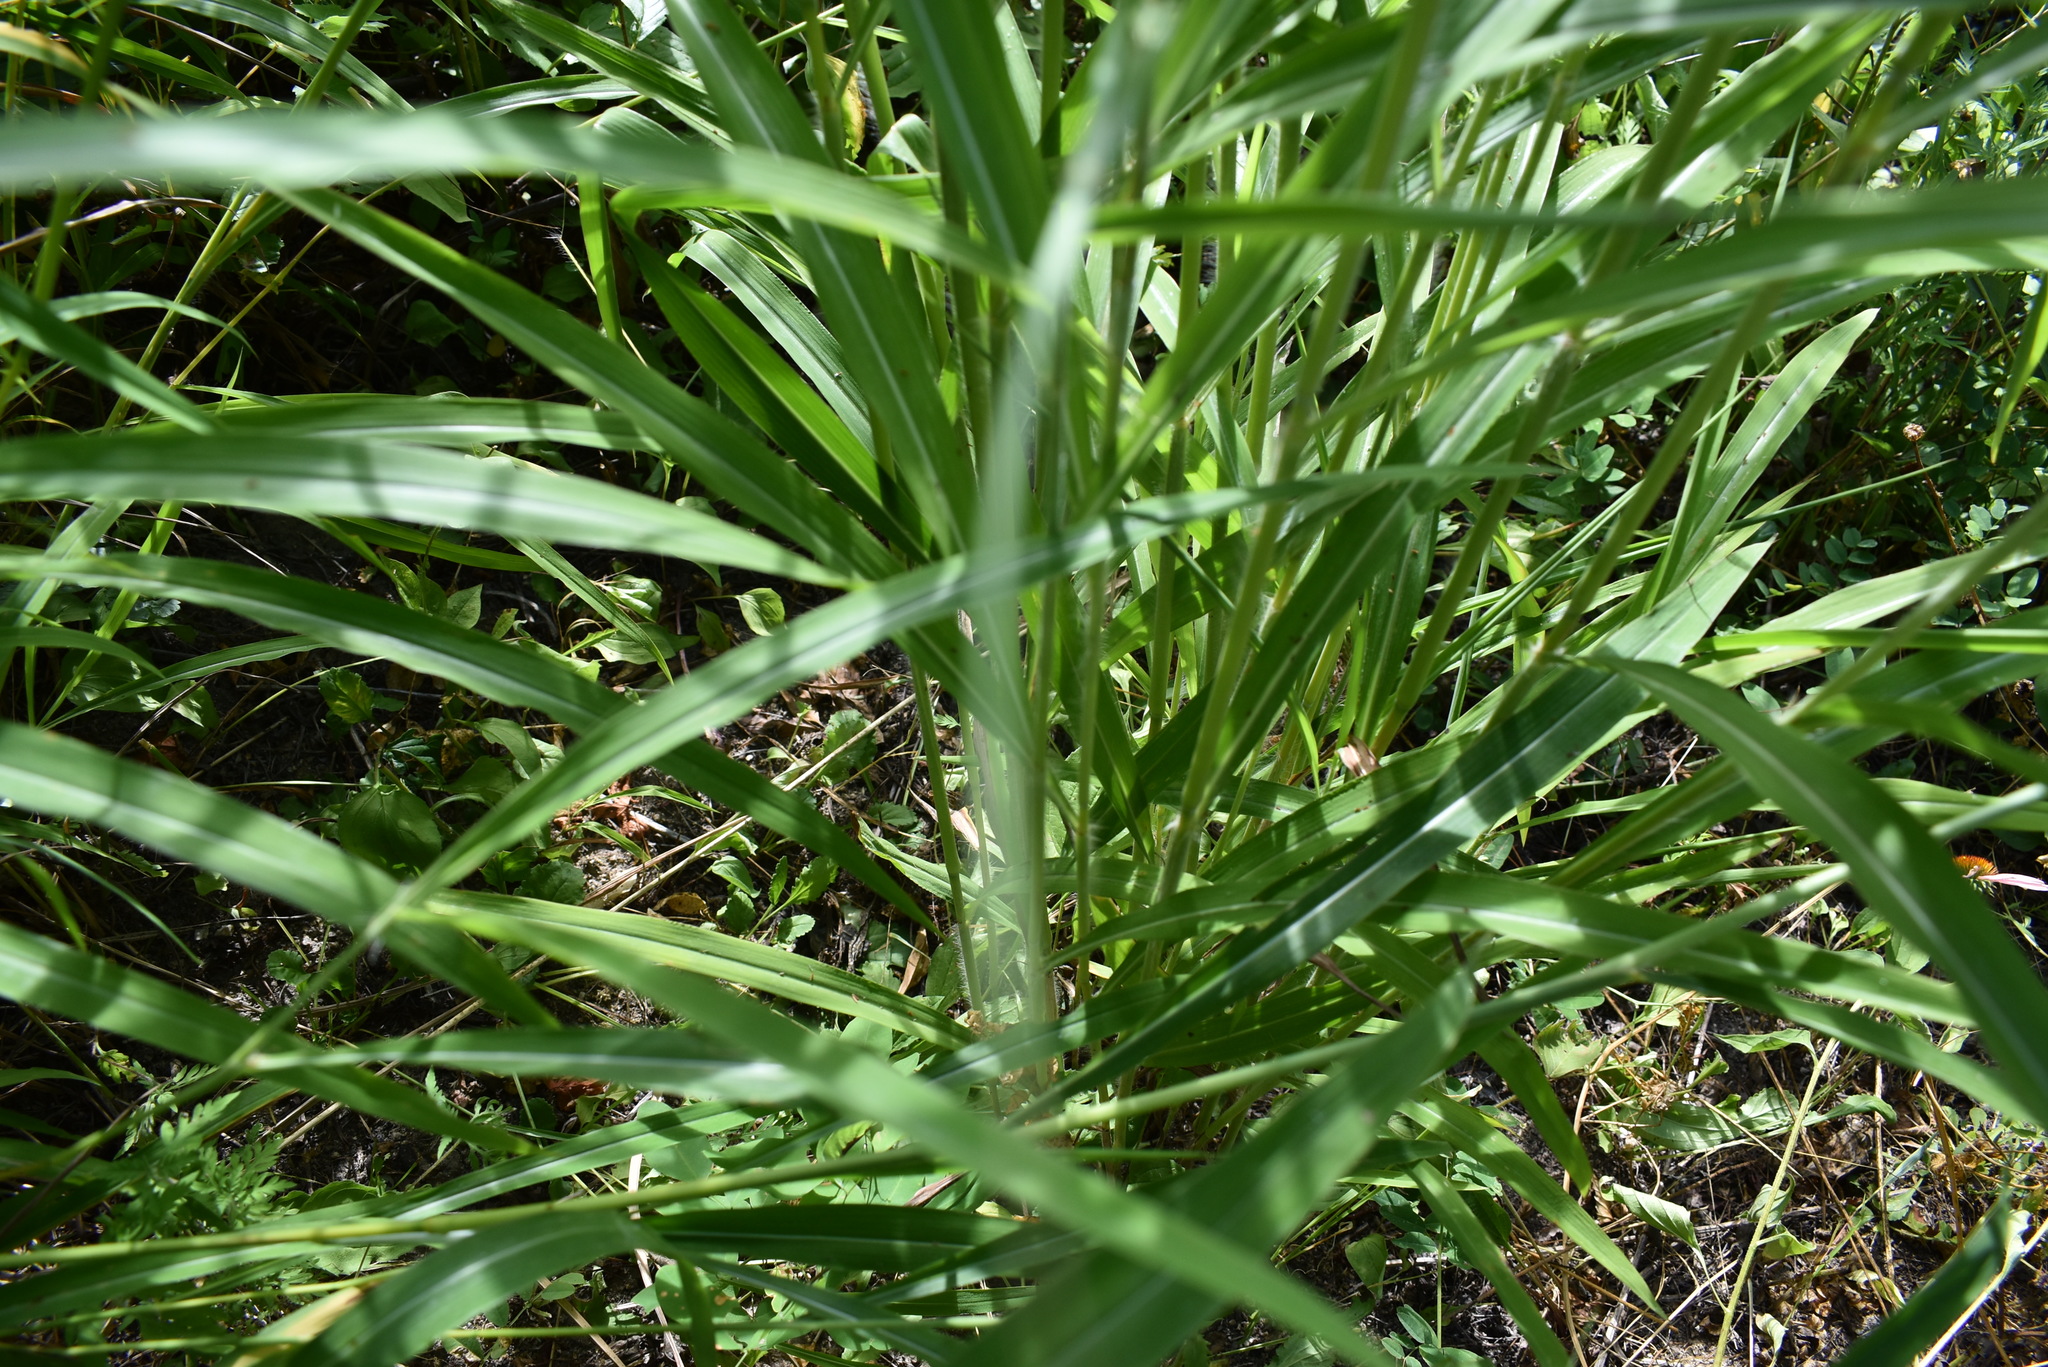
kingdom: Plantae
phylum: Tracheophyta
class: Liliopsida
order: Poales
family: Poaceae
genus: Spodiopogon
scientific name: Spodiopogon sibiricus
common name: Siberian graybeard
